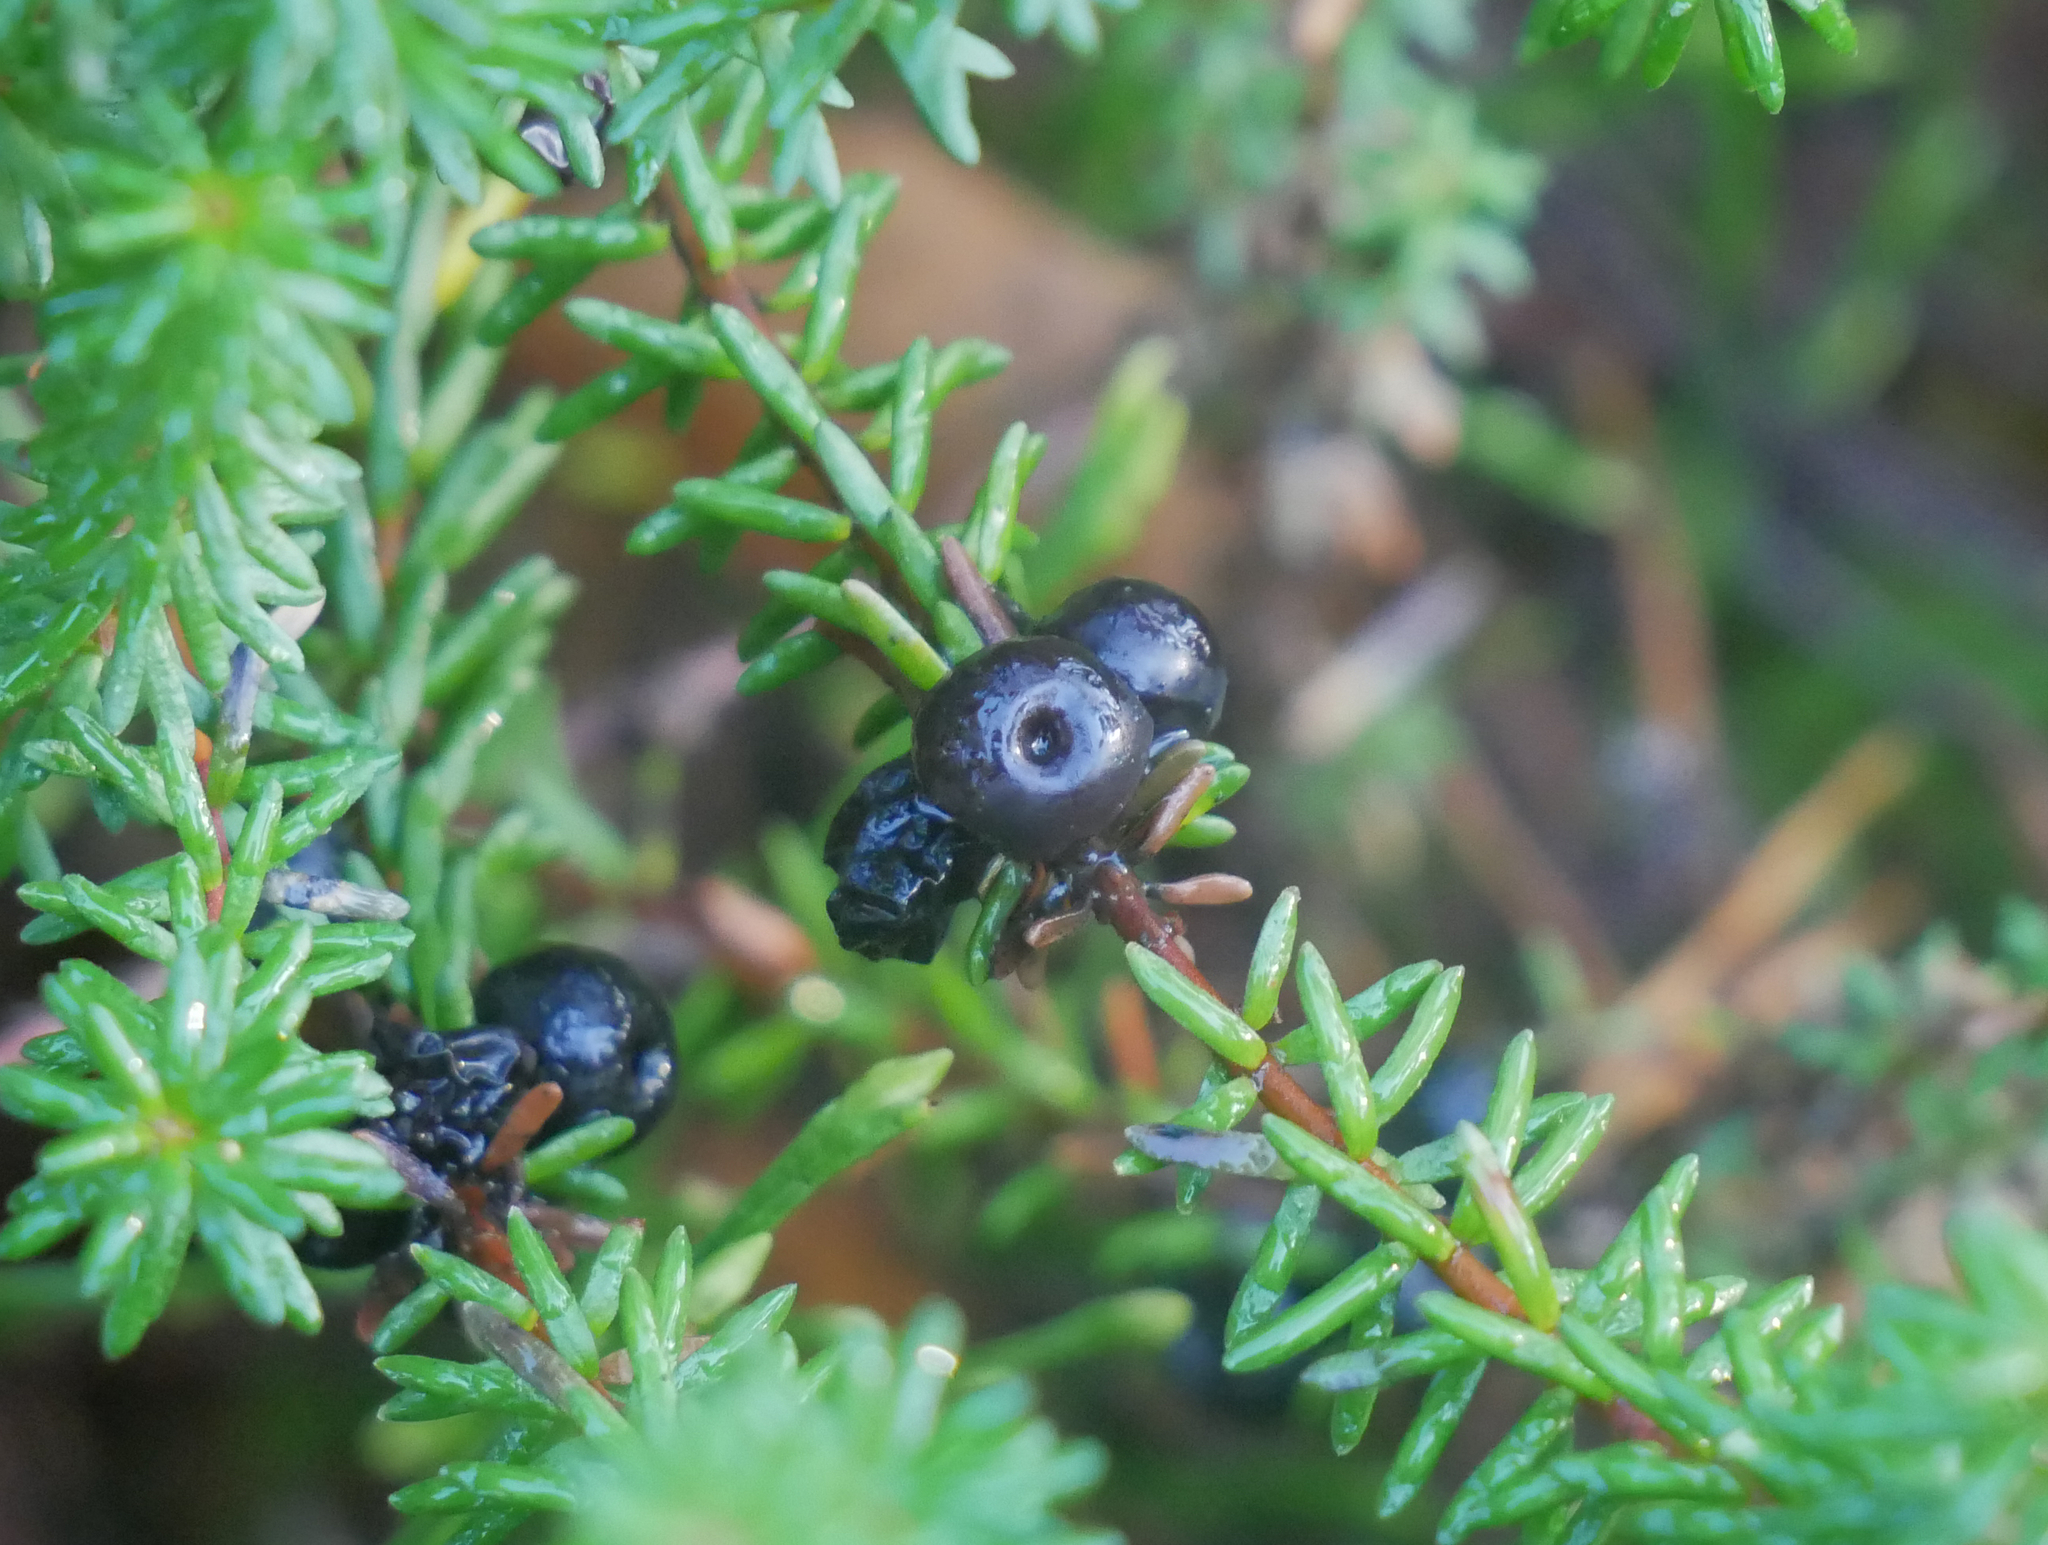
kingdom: Plantae
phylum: Tracheophyta
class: Magnoliopsida
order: Ericales
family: Ericaceae
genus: Empetrum
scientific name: Empetrum nigrum
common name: Black crowberry
